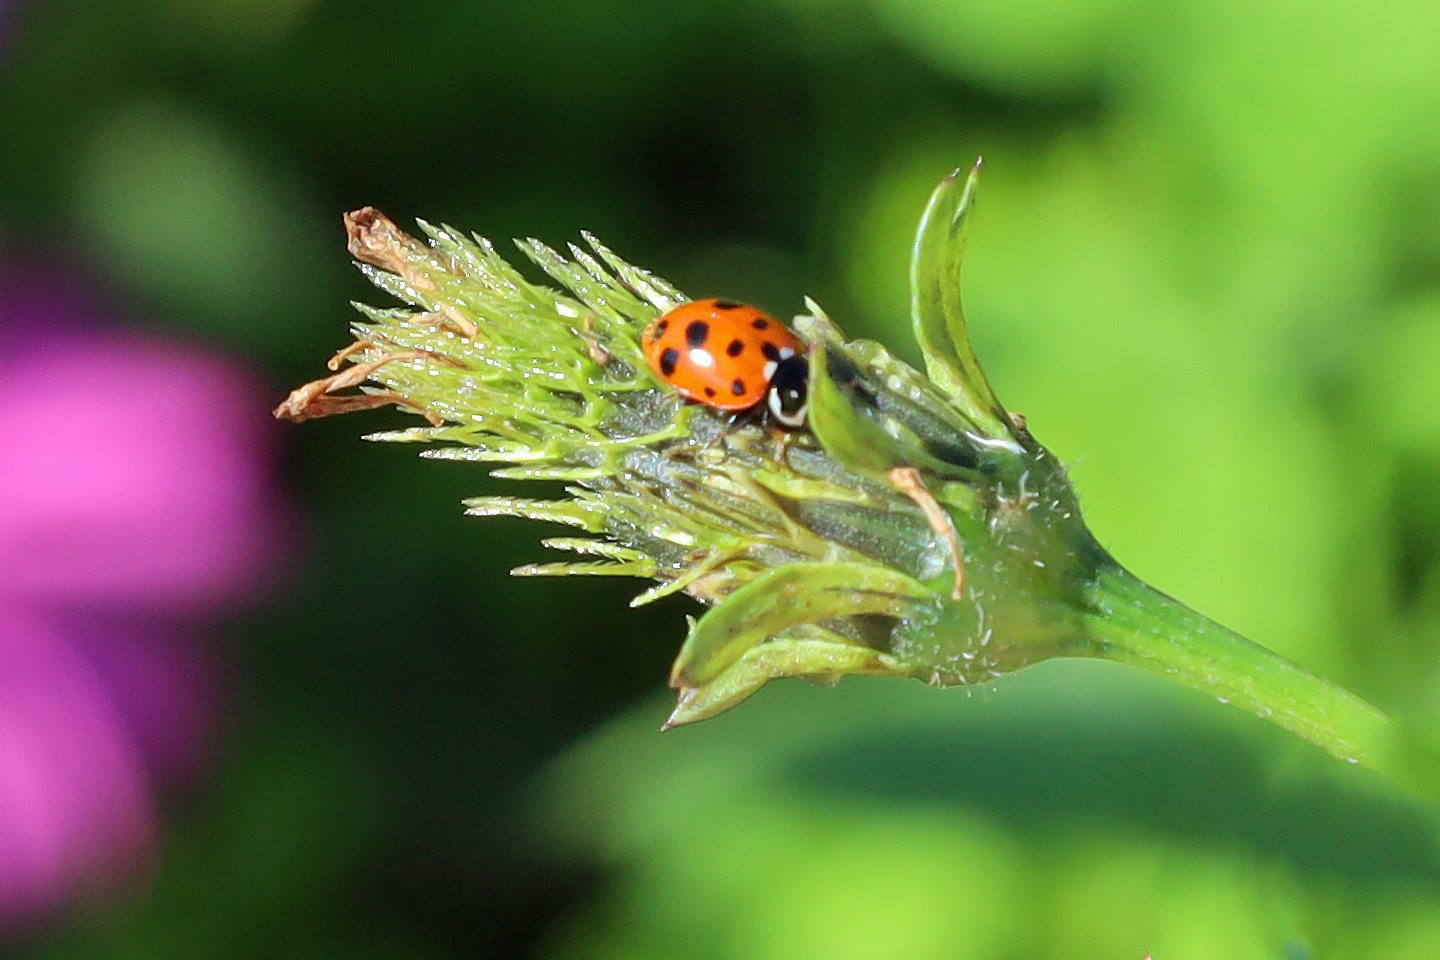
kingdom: Animalia
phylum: Arthropoda
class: Insecta
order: Coleoptera
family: Coccinellidae
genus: Hippodamia
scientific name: Hippodamia variegata
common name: Ladybird beetle
